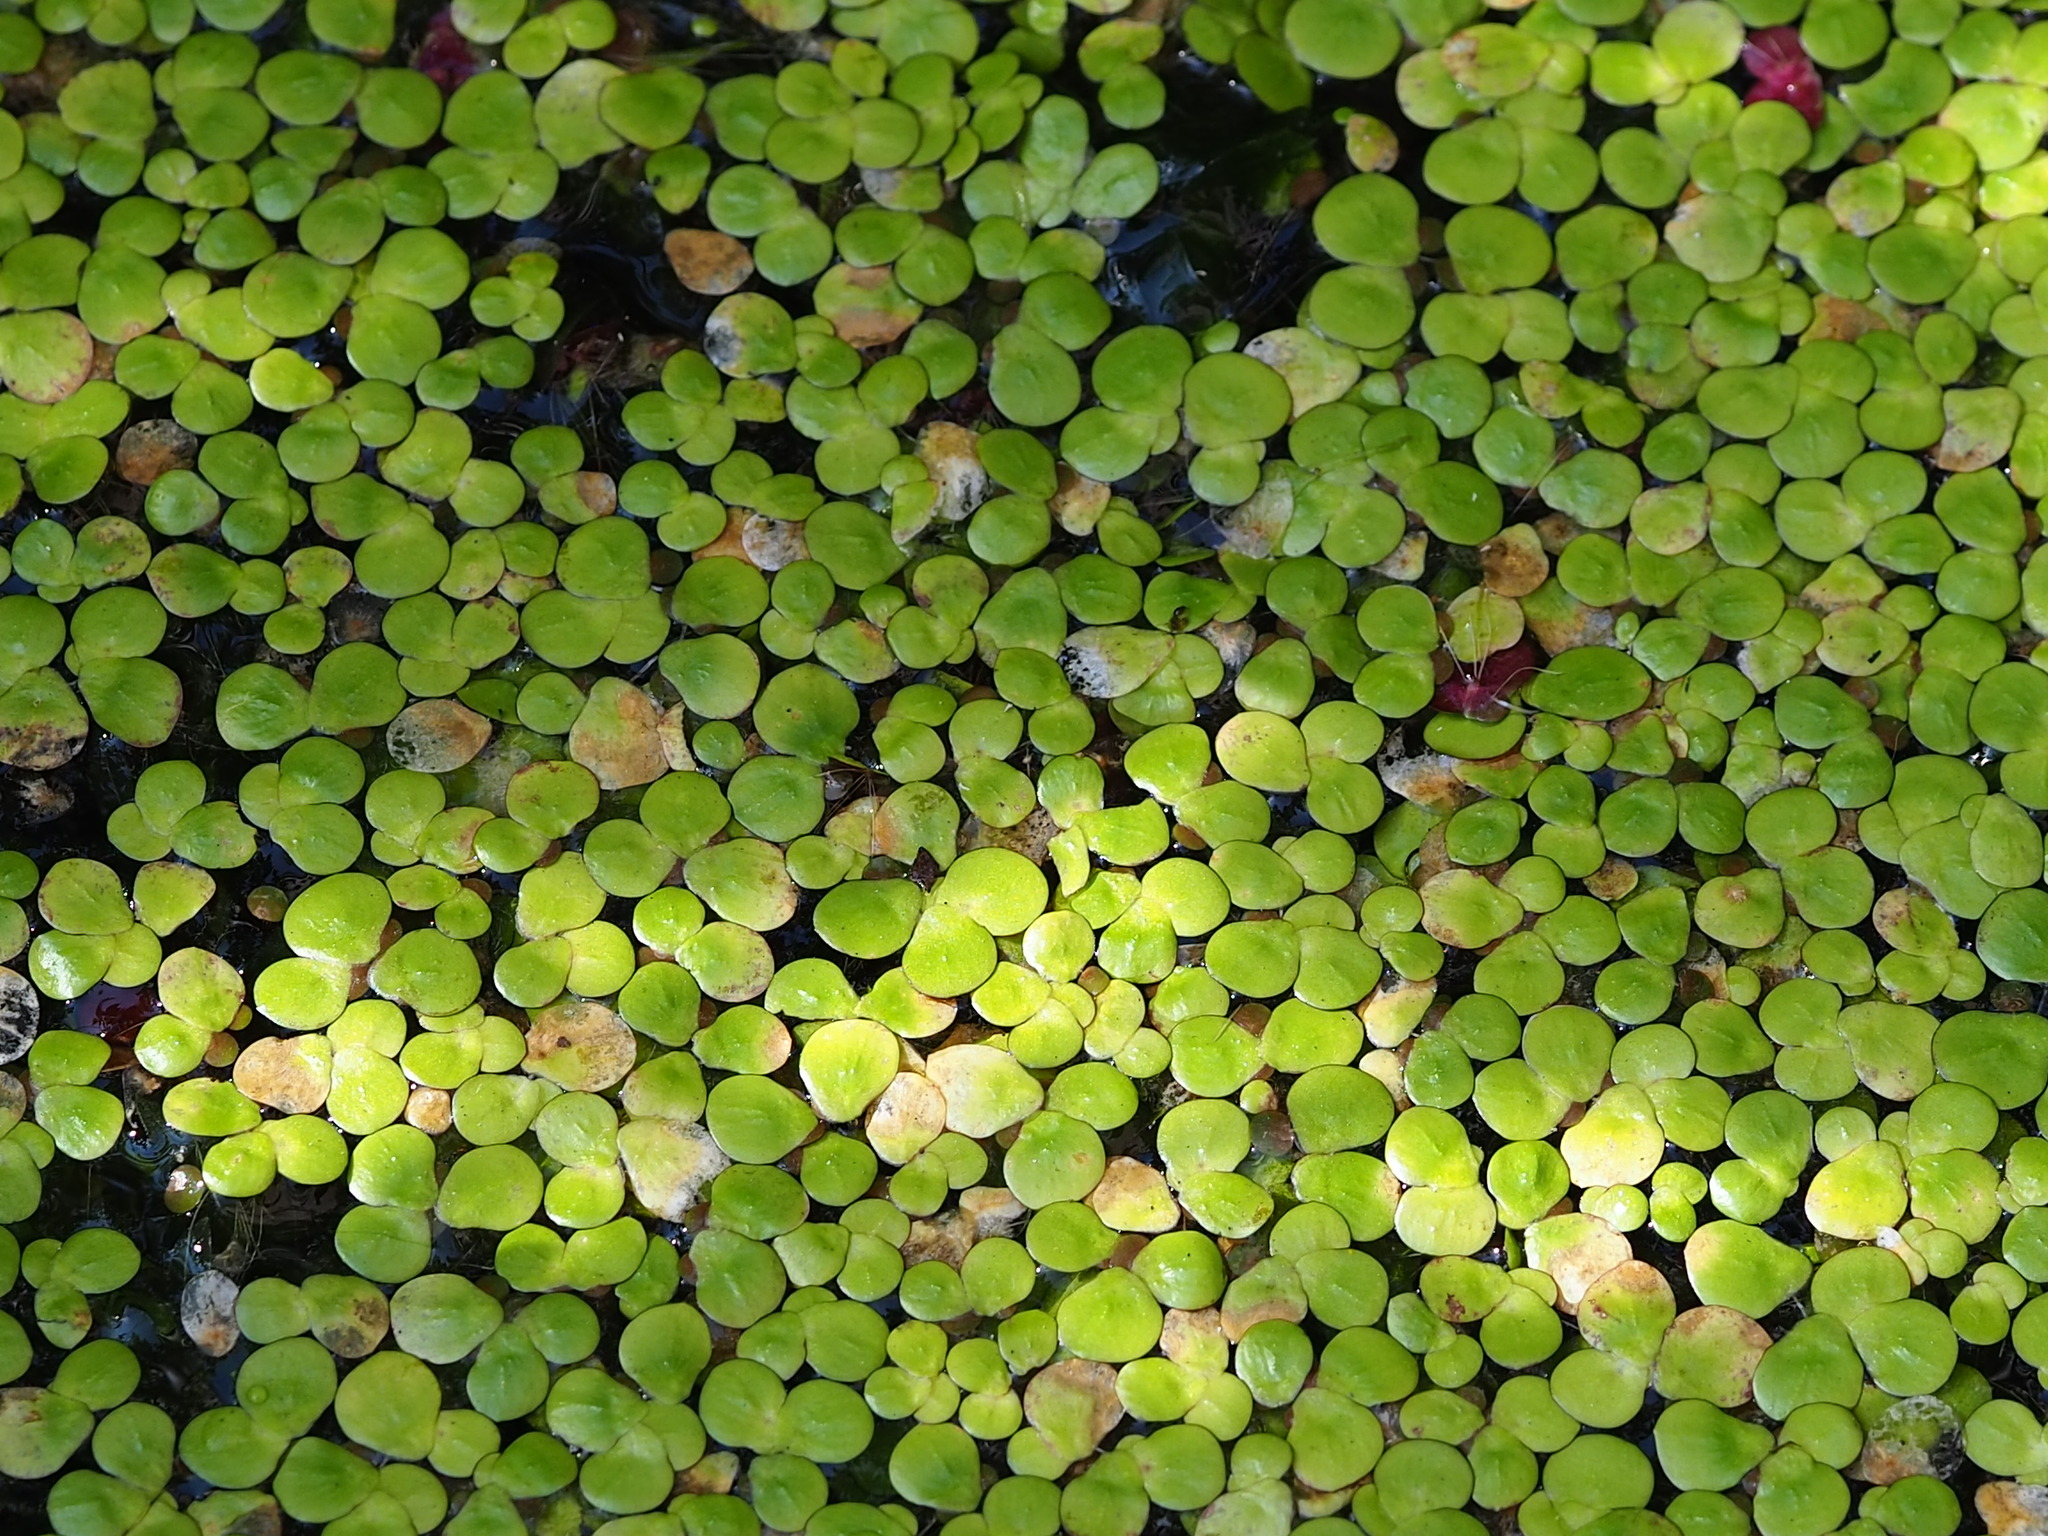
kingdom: Plantae
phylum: Tracheophyta
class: Liliopsida
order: Alismatales
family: Araceae
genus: Spirodela
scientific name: Spirodela polyrhiza
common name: Great duckweed
